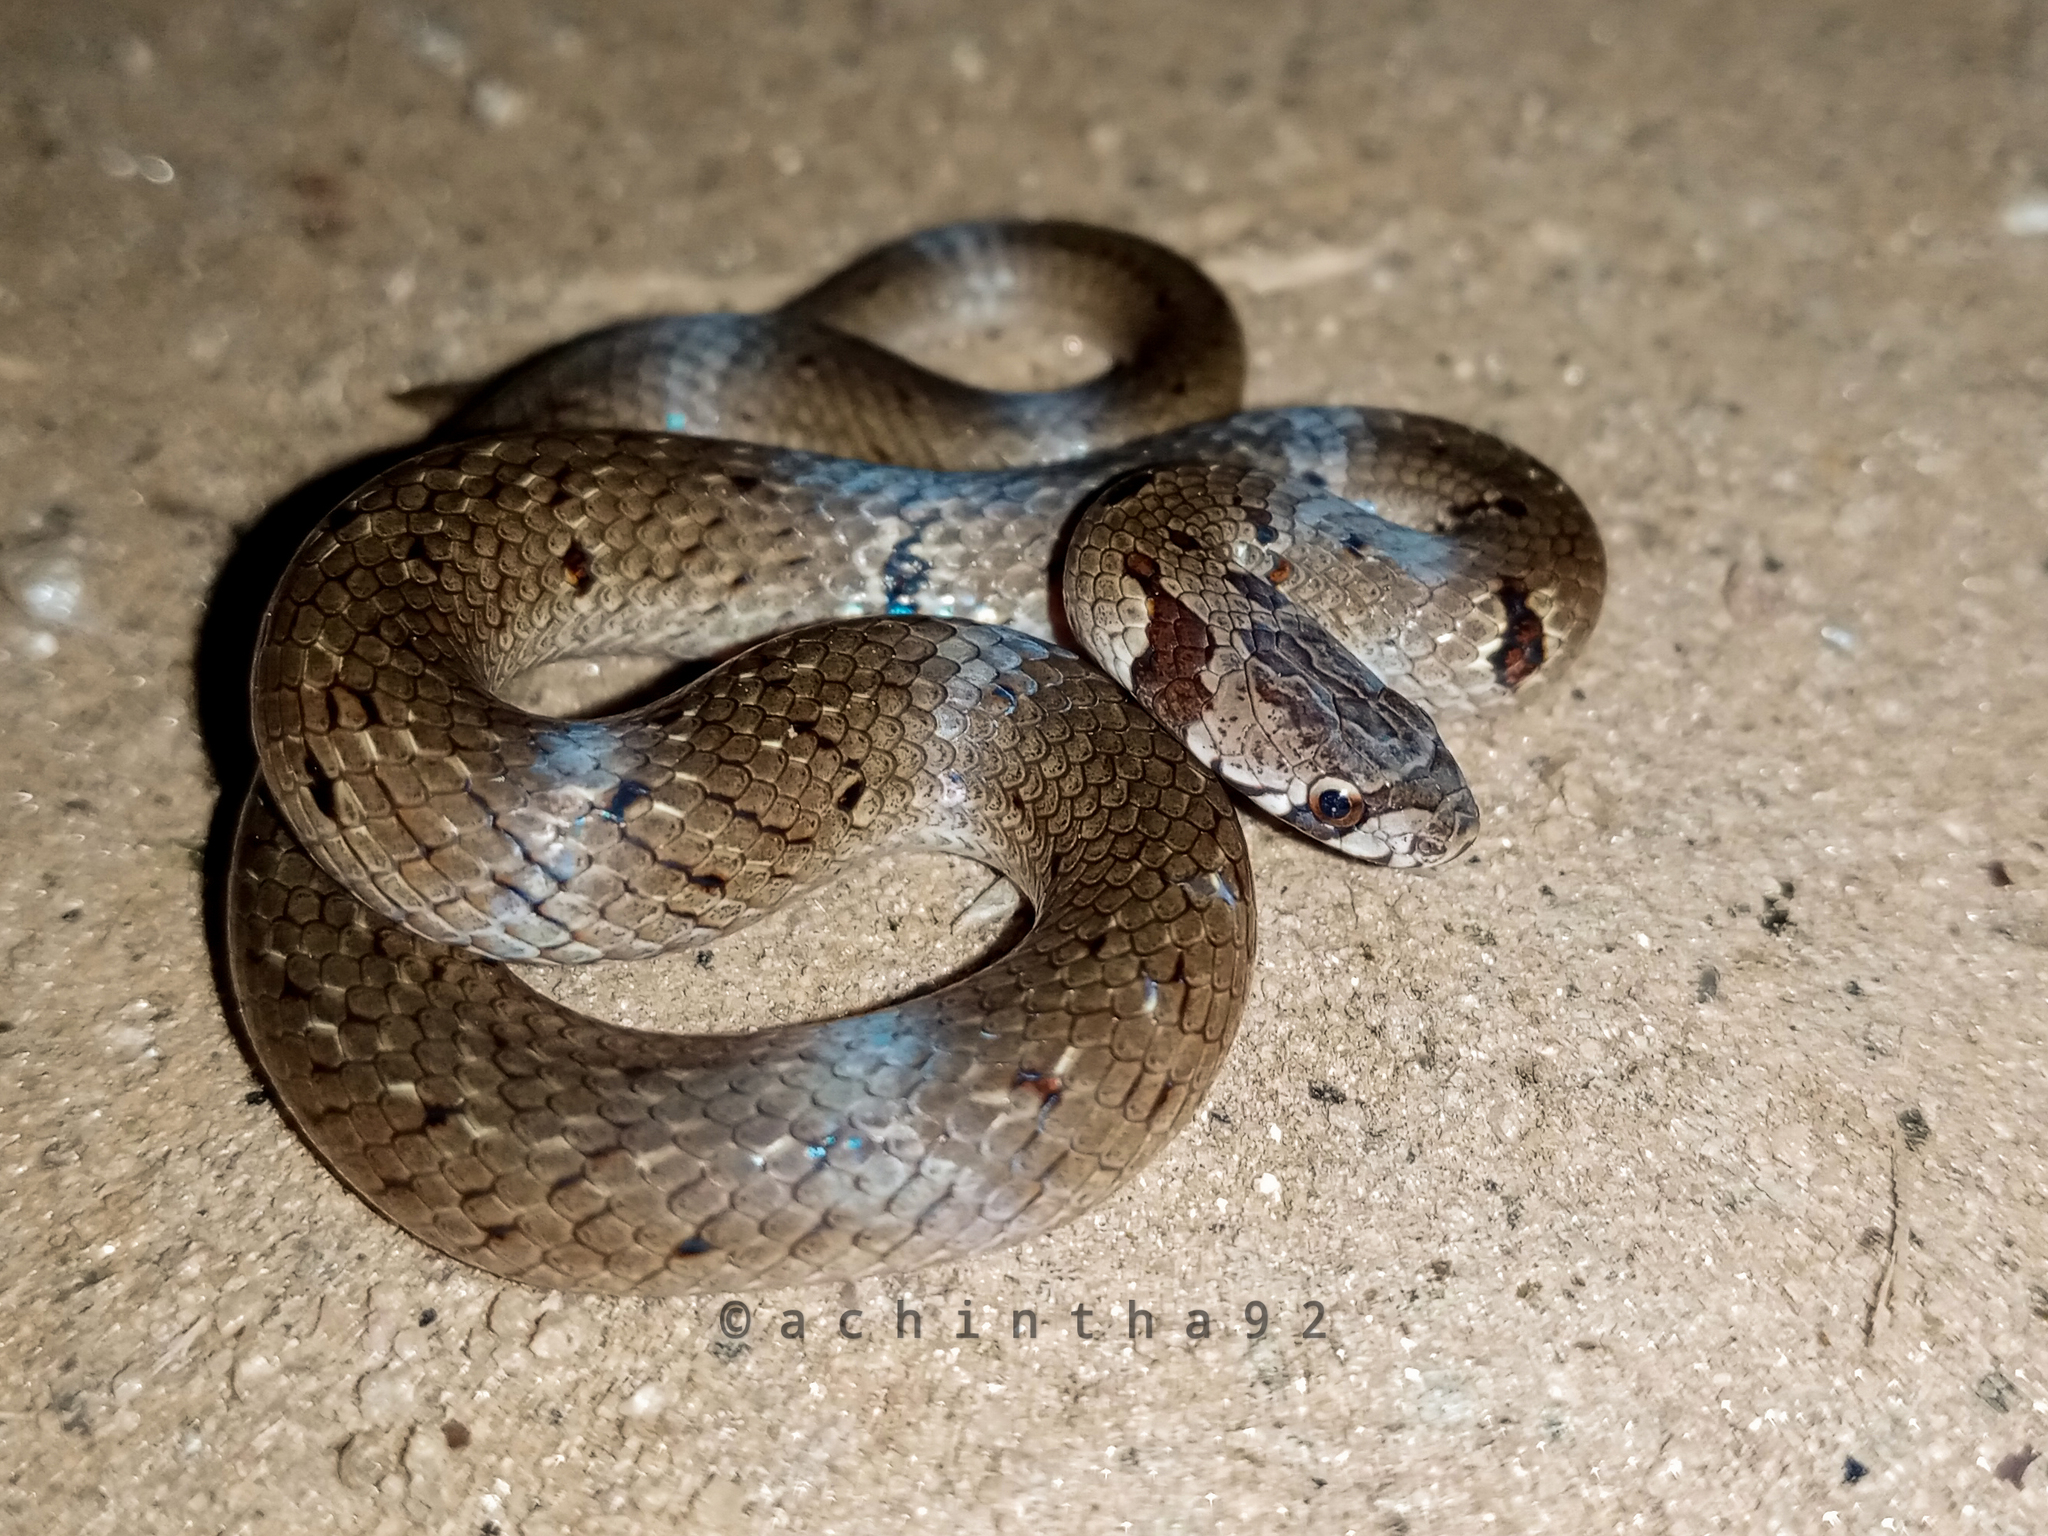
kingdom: Animalia
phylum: Chordata
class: Squamata
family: Colubridae
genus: Oligodon
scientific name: Oligodon sublineatus
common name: Duméril's kukri snake
